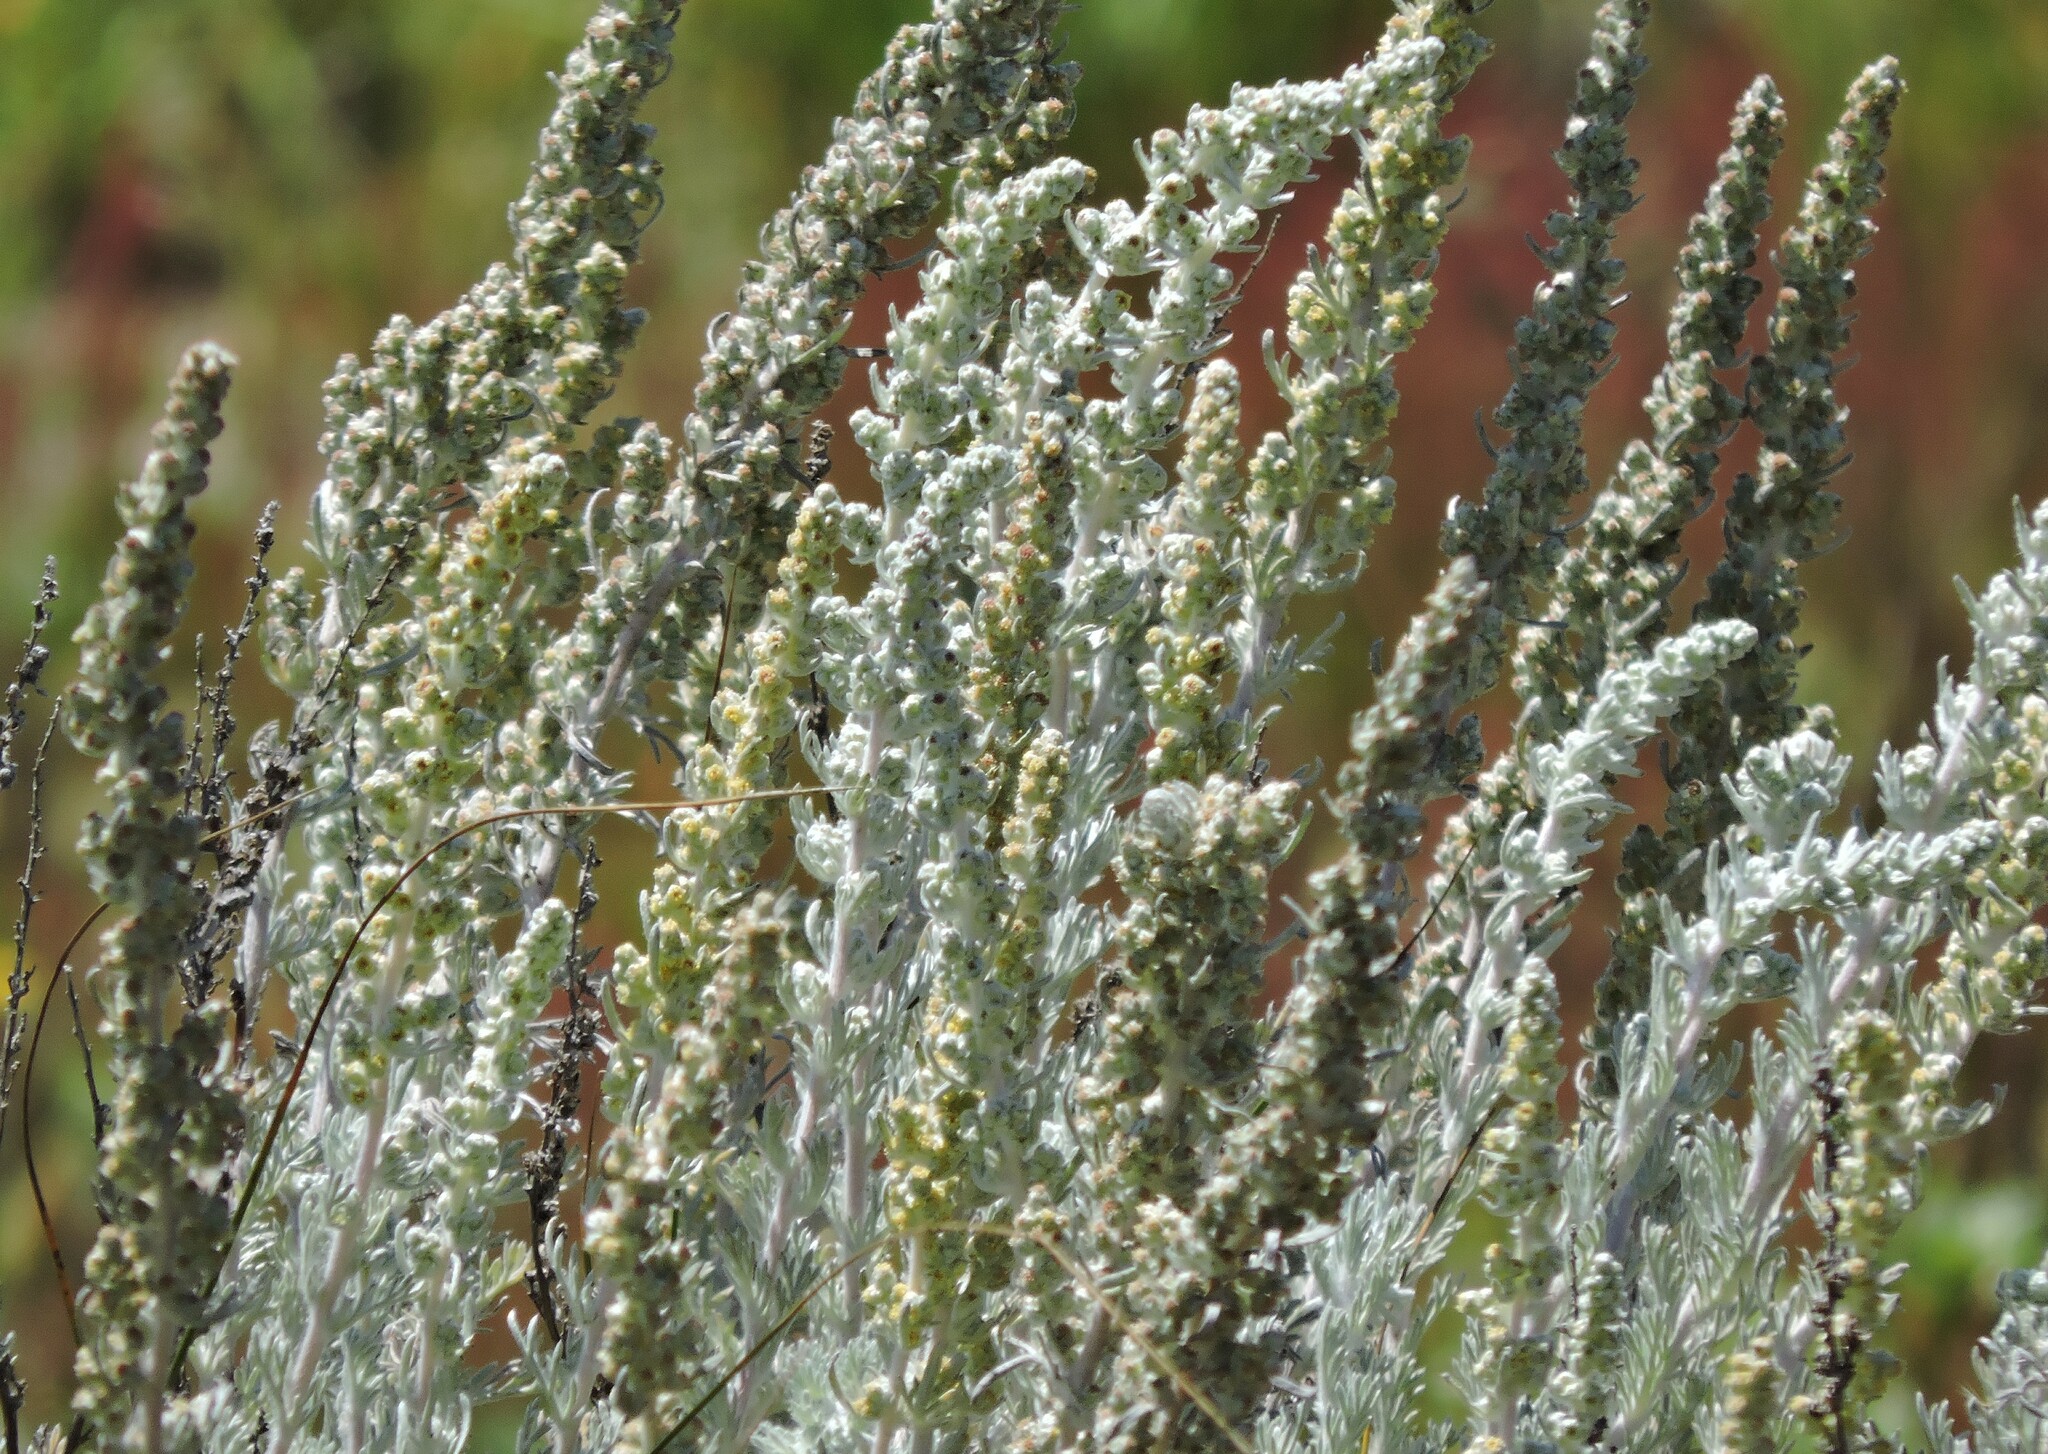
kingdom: Plantae
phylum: Tracheophyta
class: Magnoliopsida
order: Asterales
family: Asteraceae
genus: Artemisia
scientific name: Artemisia pycnocephala
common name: Coastal sagewort
